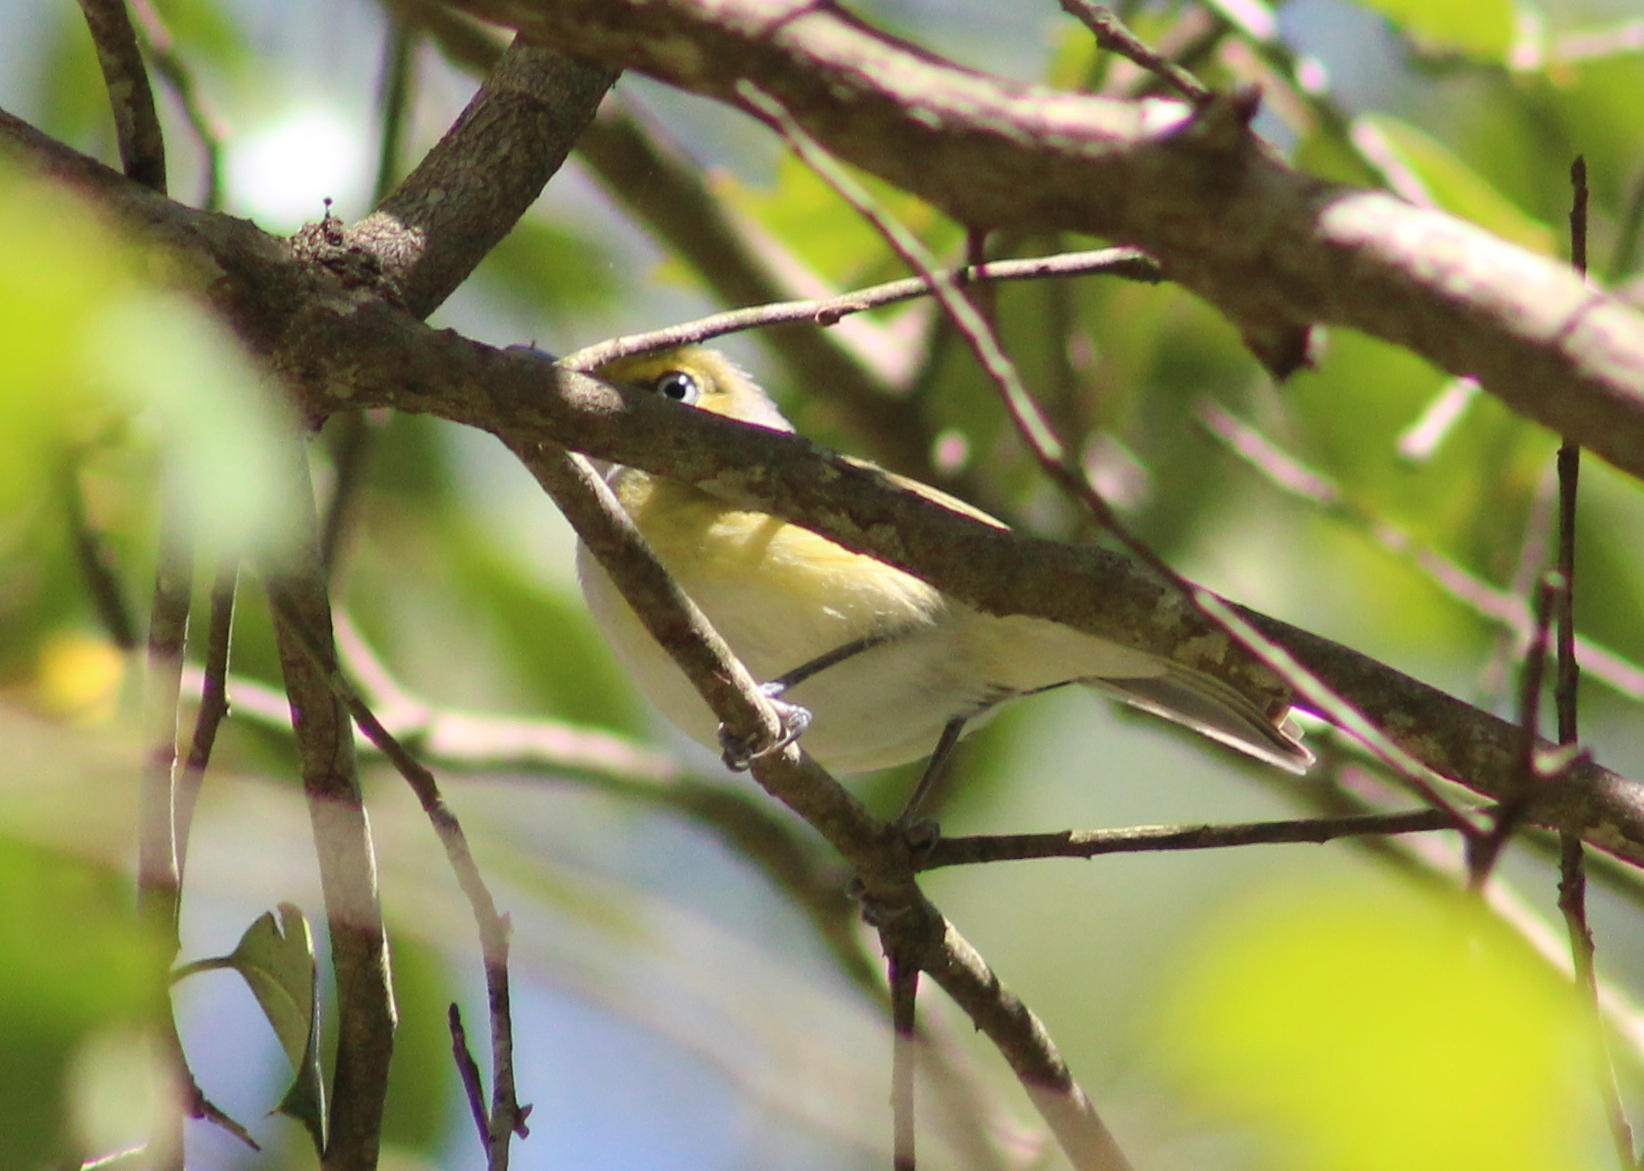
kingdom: Animalia
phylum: Chordata
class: Aves
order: Passeriformes
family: Vireonidae
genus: Vireo
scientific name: Vireo griseus
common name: White-eyed vireo
